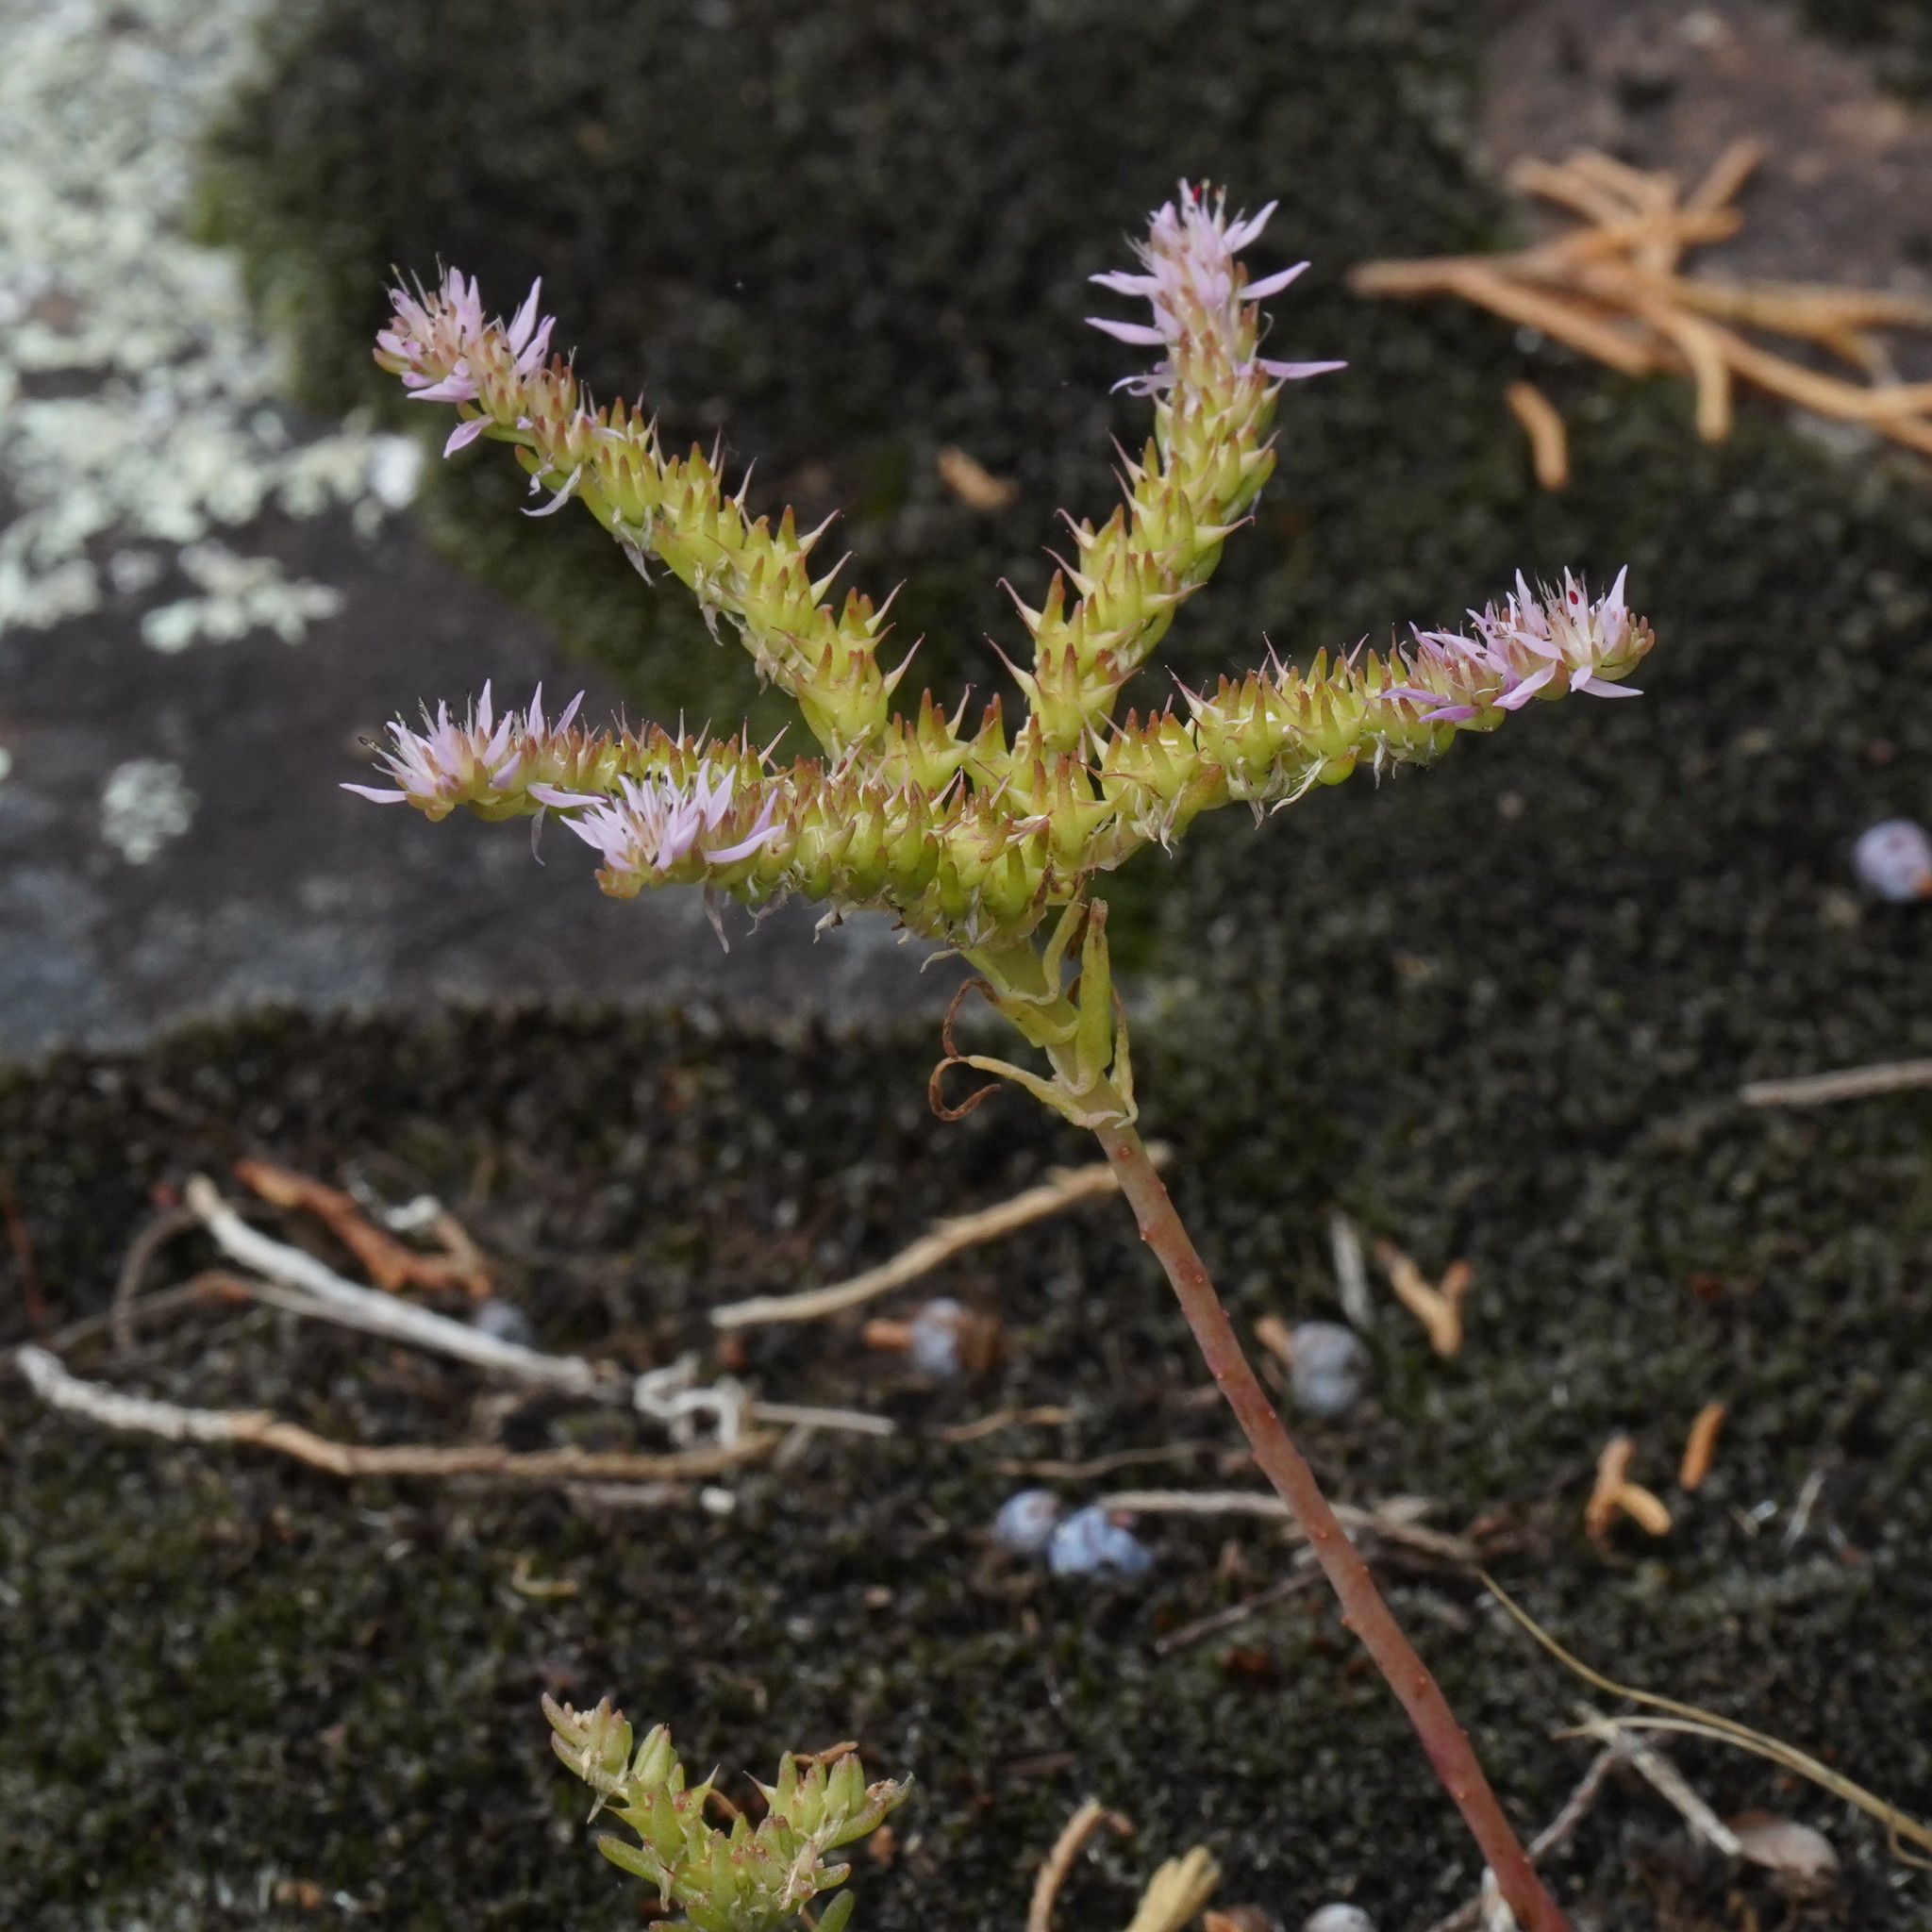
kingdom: Plantae
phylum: Tracheophyta
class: Magnoliopsida
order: Saxifragales
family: Crassulaceae
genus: Sedum
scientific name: Sedum pulchellum
